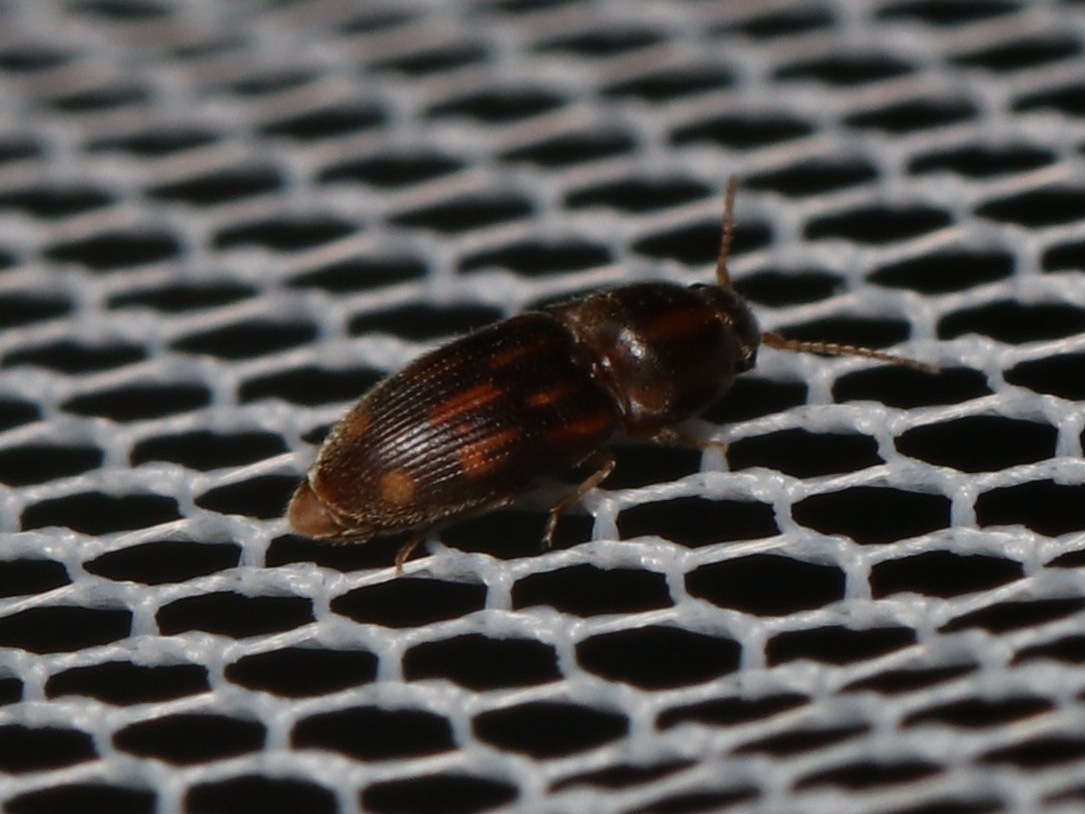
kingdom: Animalia
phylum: Arthropoda
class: Insecta
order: Coleoptera
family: Elateridae
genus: Monocrepidius
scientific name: Monocrepidius bellus
